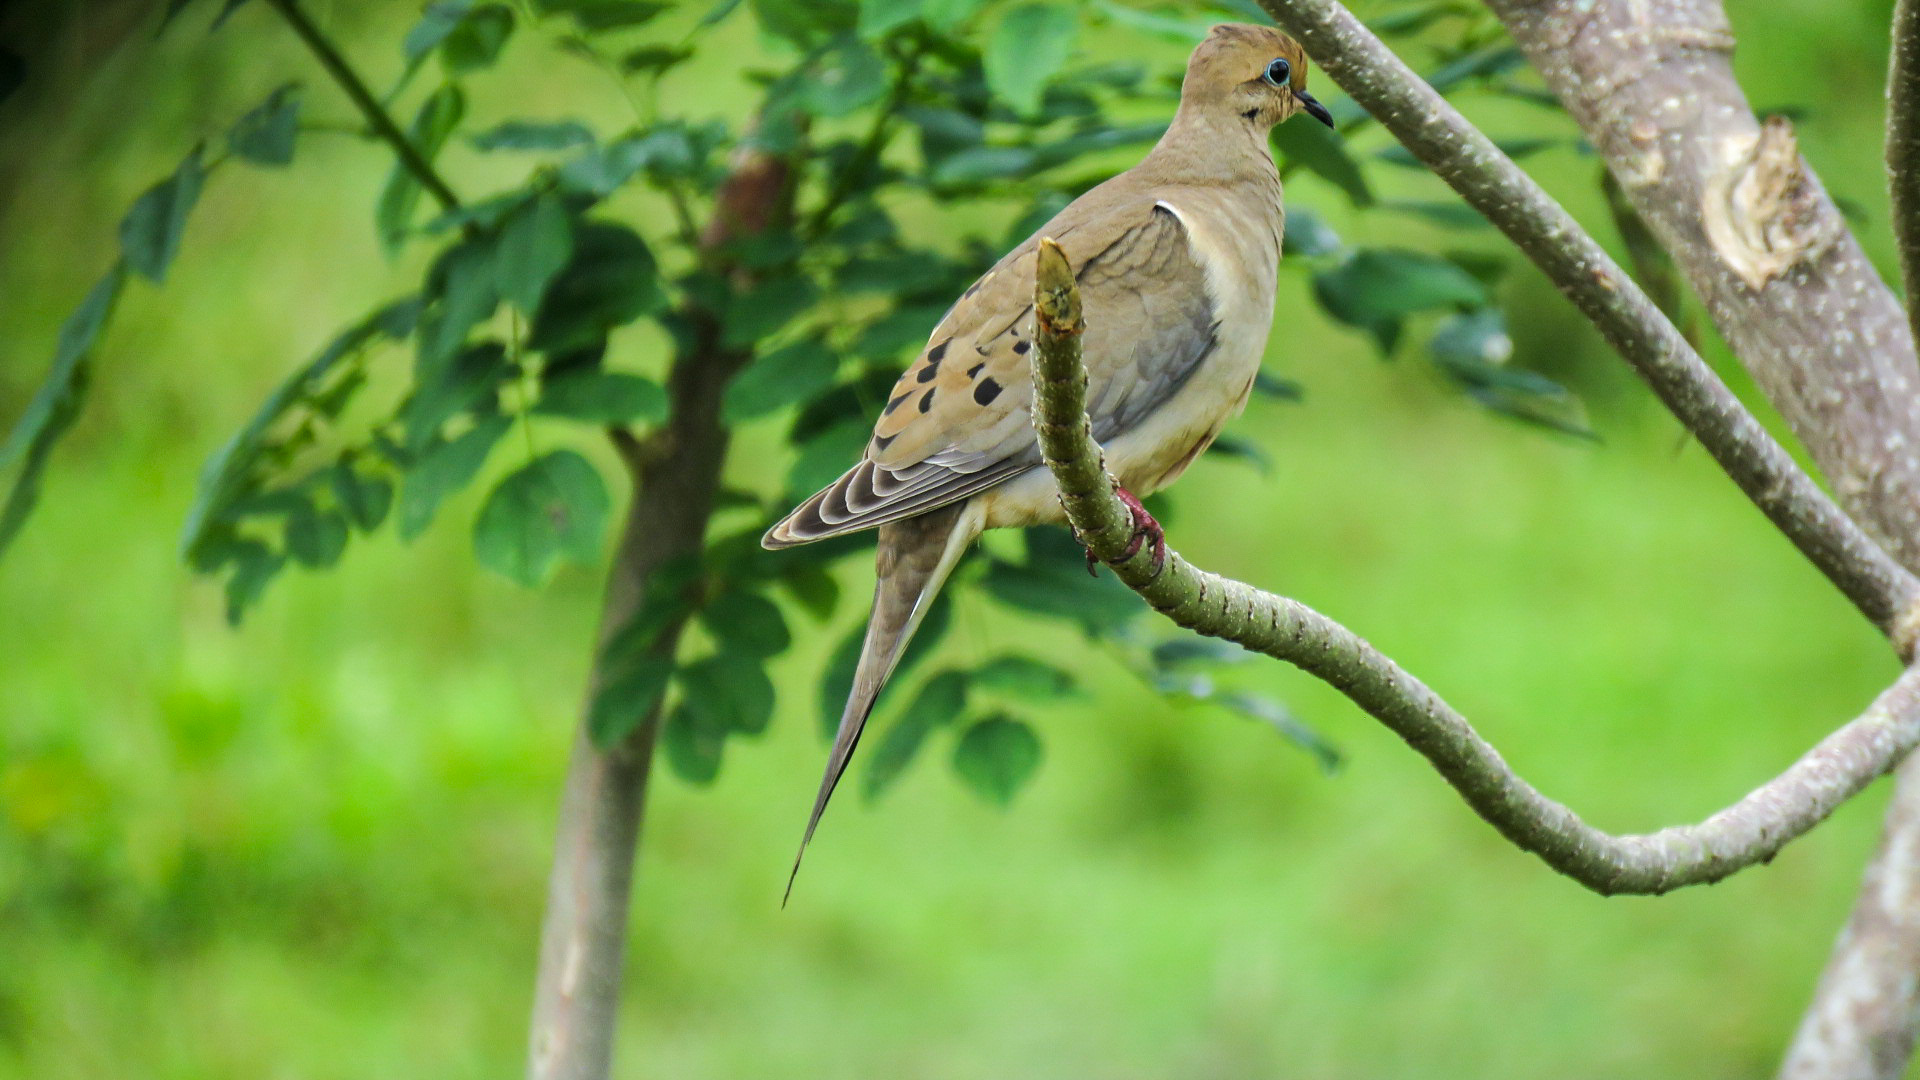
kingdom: Animalia
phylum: Chordata
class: Aves
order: Columbiformes
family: Columbidae
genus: Zenaida
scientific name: Zenaida macroura
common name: Mourning dove
